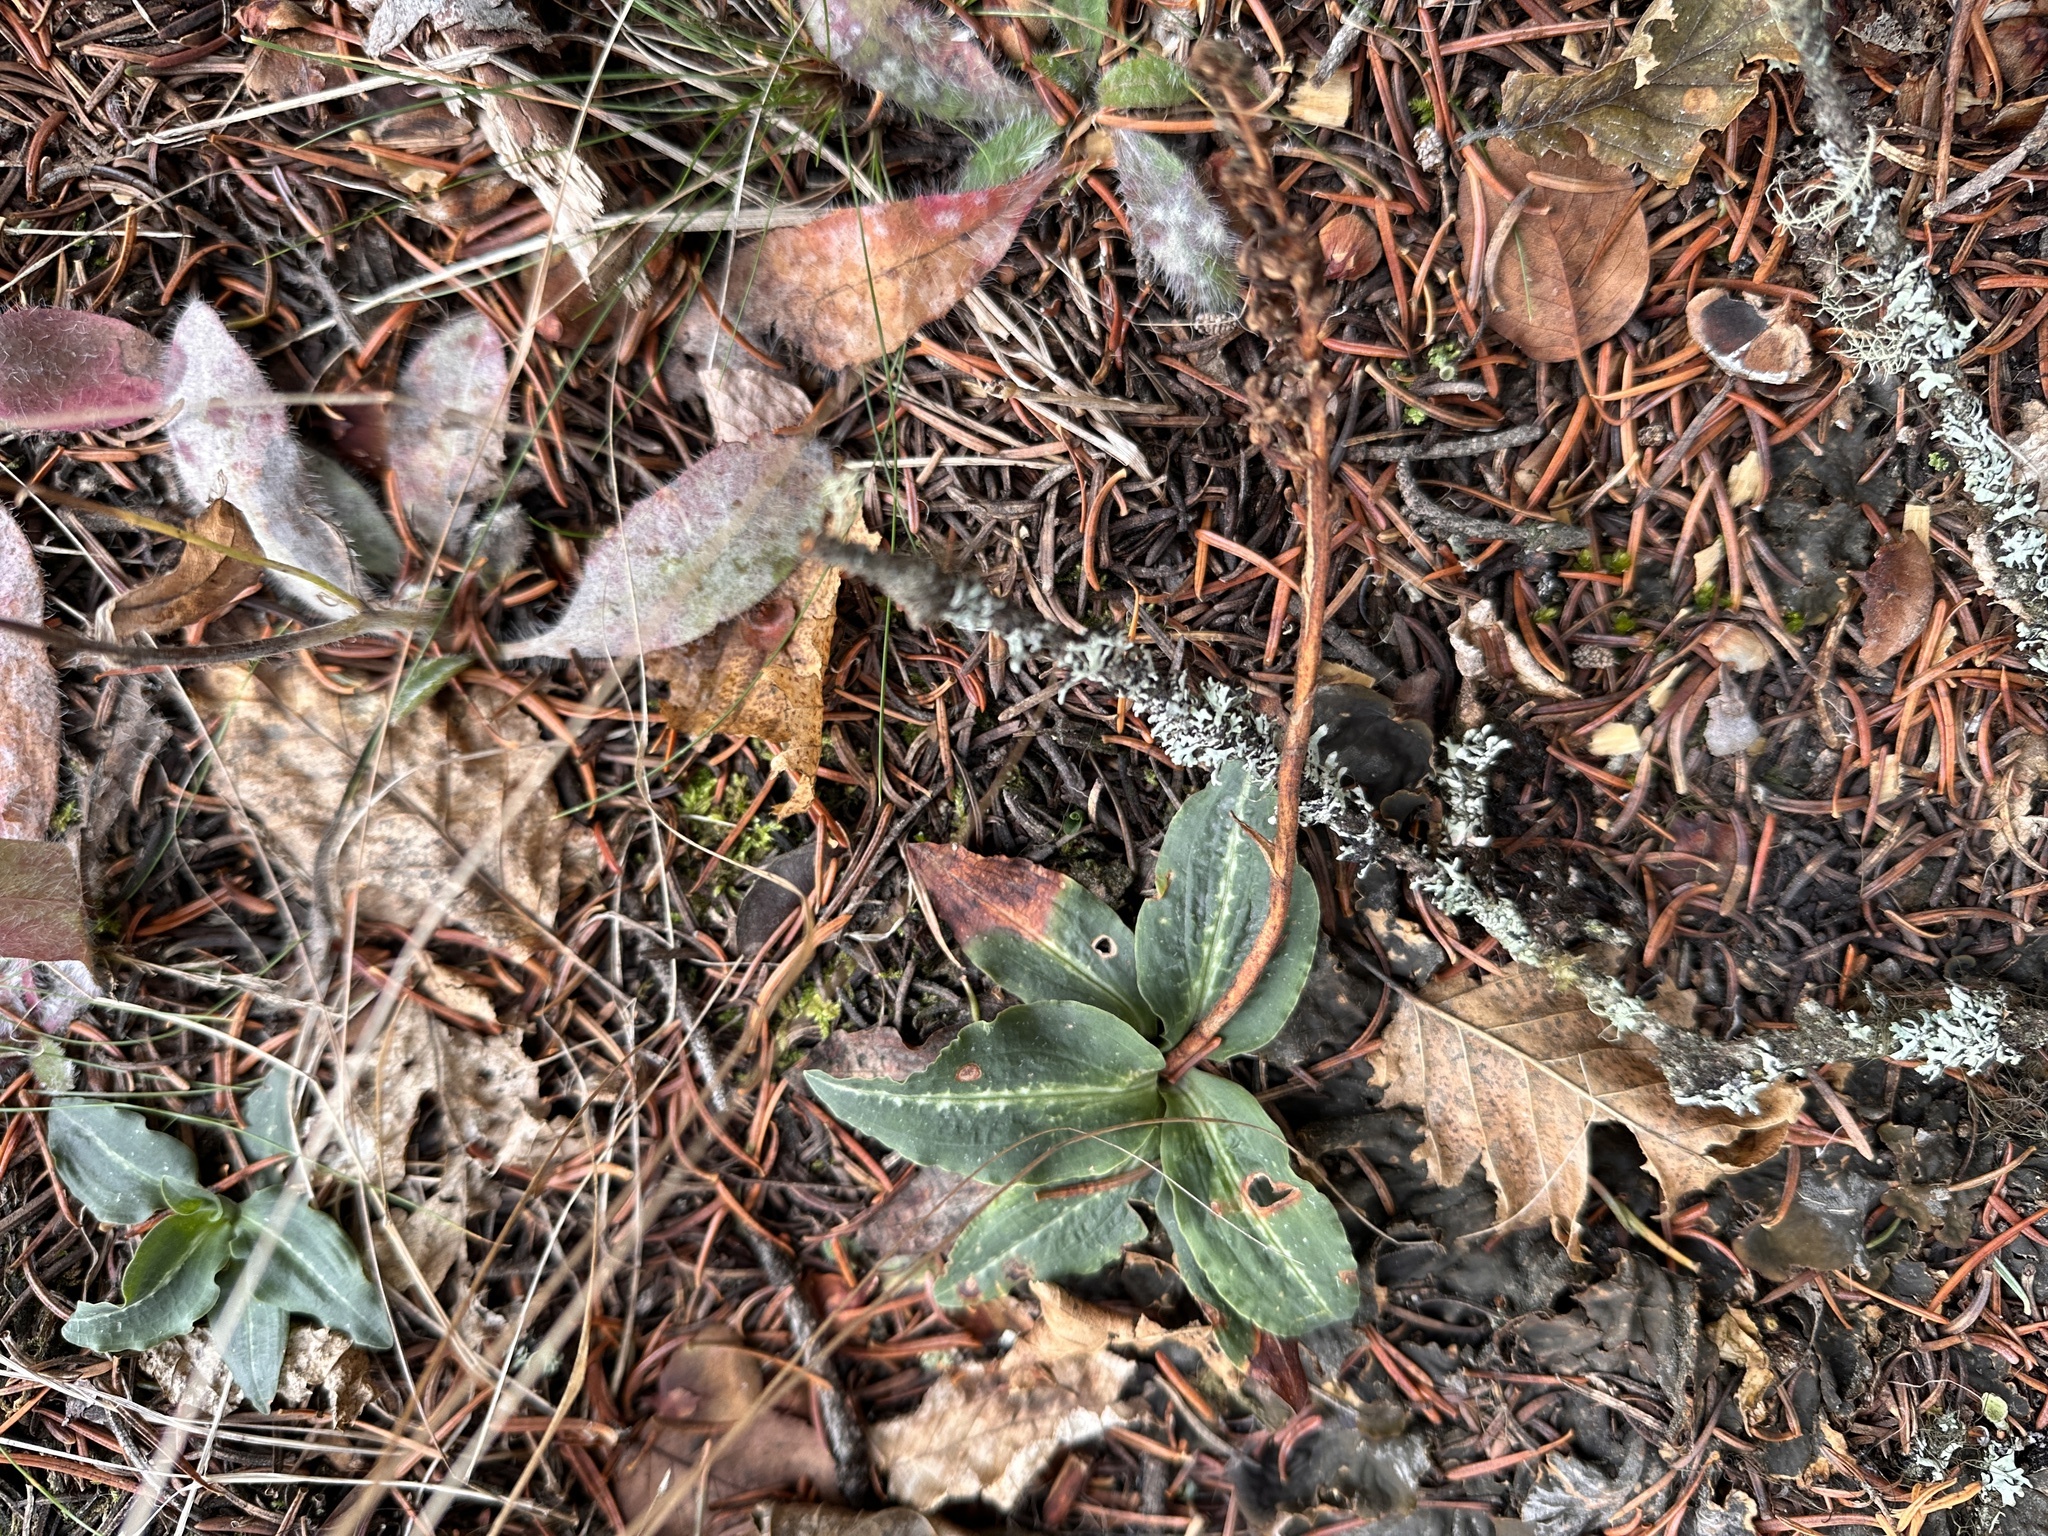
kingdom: Plantae
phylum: Tracheophyta
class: Liliopsida
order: Asparagales
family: Orchidaceae
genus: Goodyera
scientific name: Goodyera oblongifolia
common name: Giant rattlesnake-plantain
